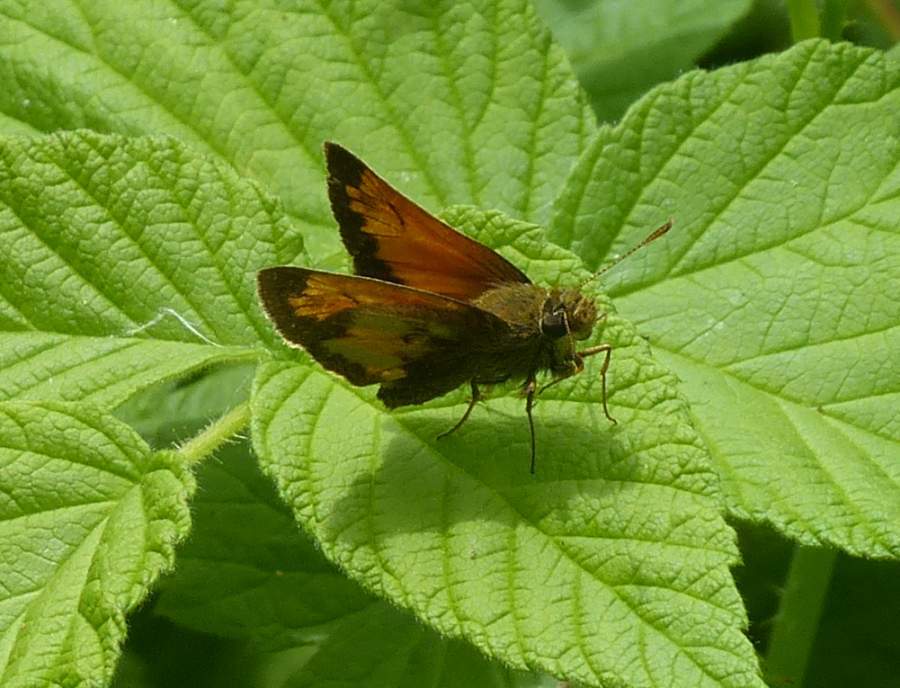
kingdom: Animalia
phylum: Arthropoda
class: Insecta
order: Lepidoptera
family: Hesperiidae
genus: Lon
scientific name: Lon hobomok
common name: Hobomok skipper
